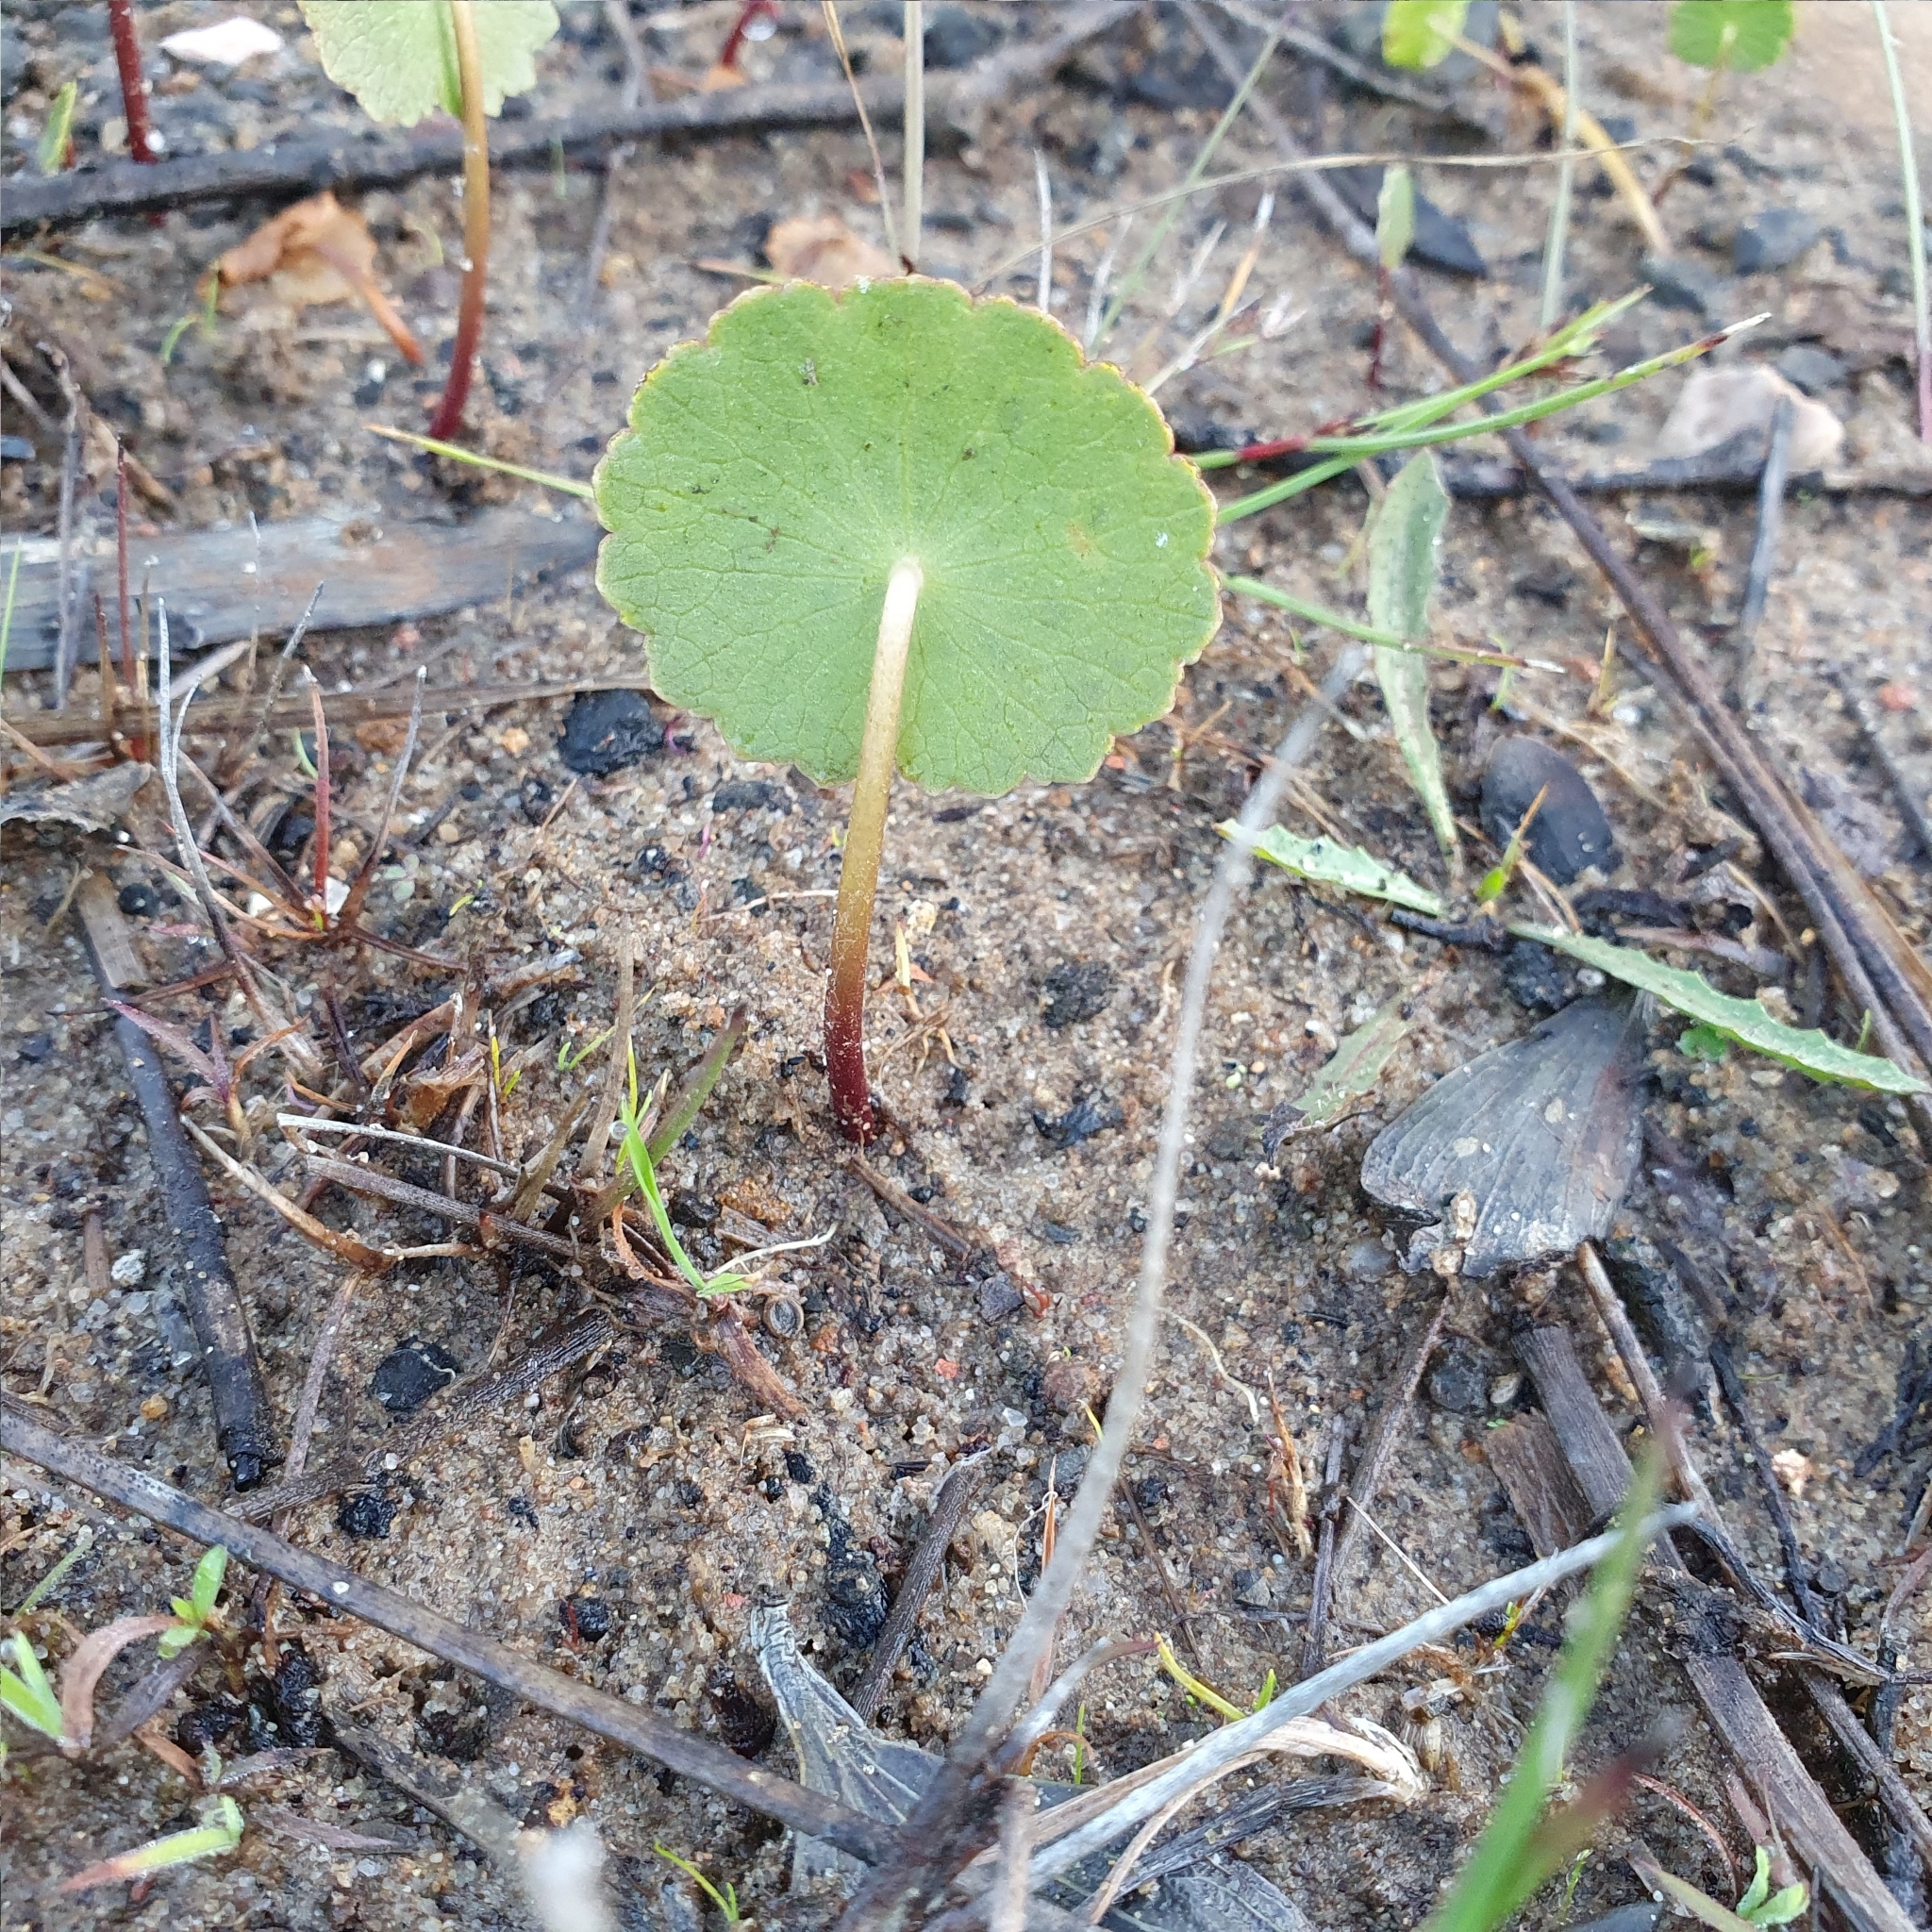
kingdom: Plantae
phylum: Tracheophyta
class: Magnoliopsida
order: Apiales
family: Araliaceae
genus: Hydrocotyle
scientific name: Hydrocotyle bonariensis
